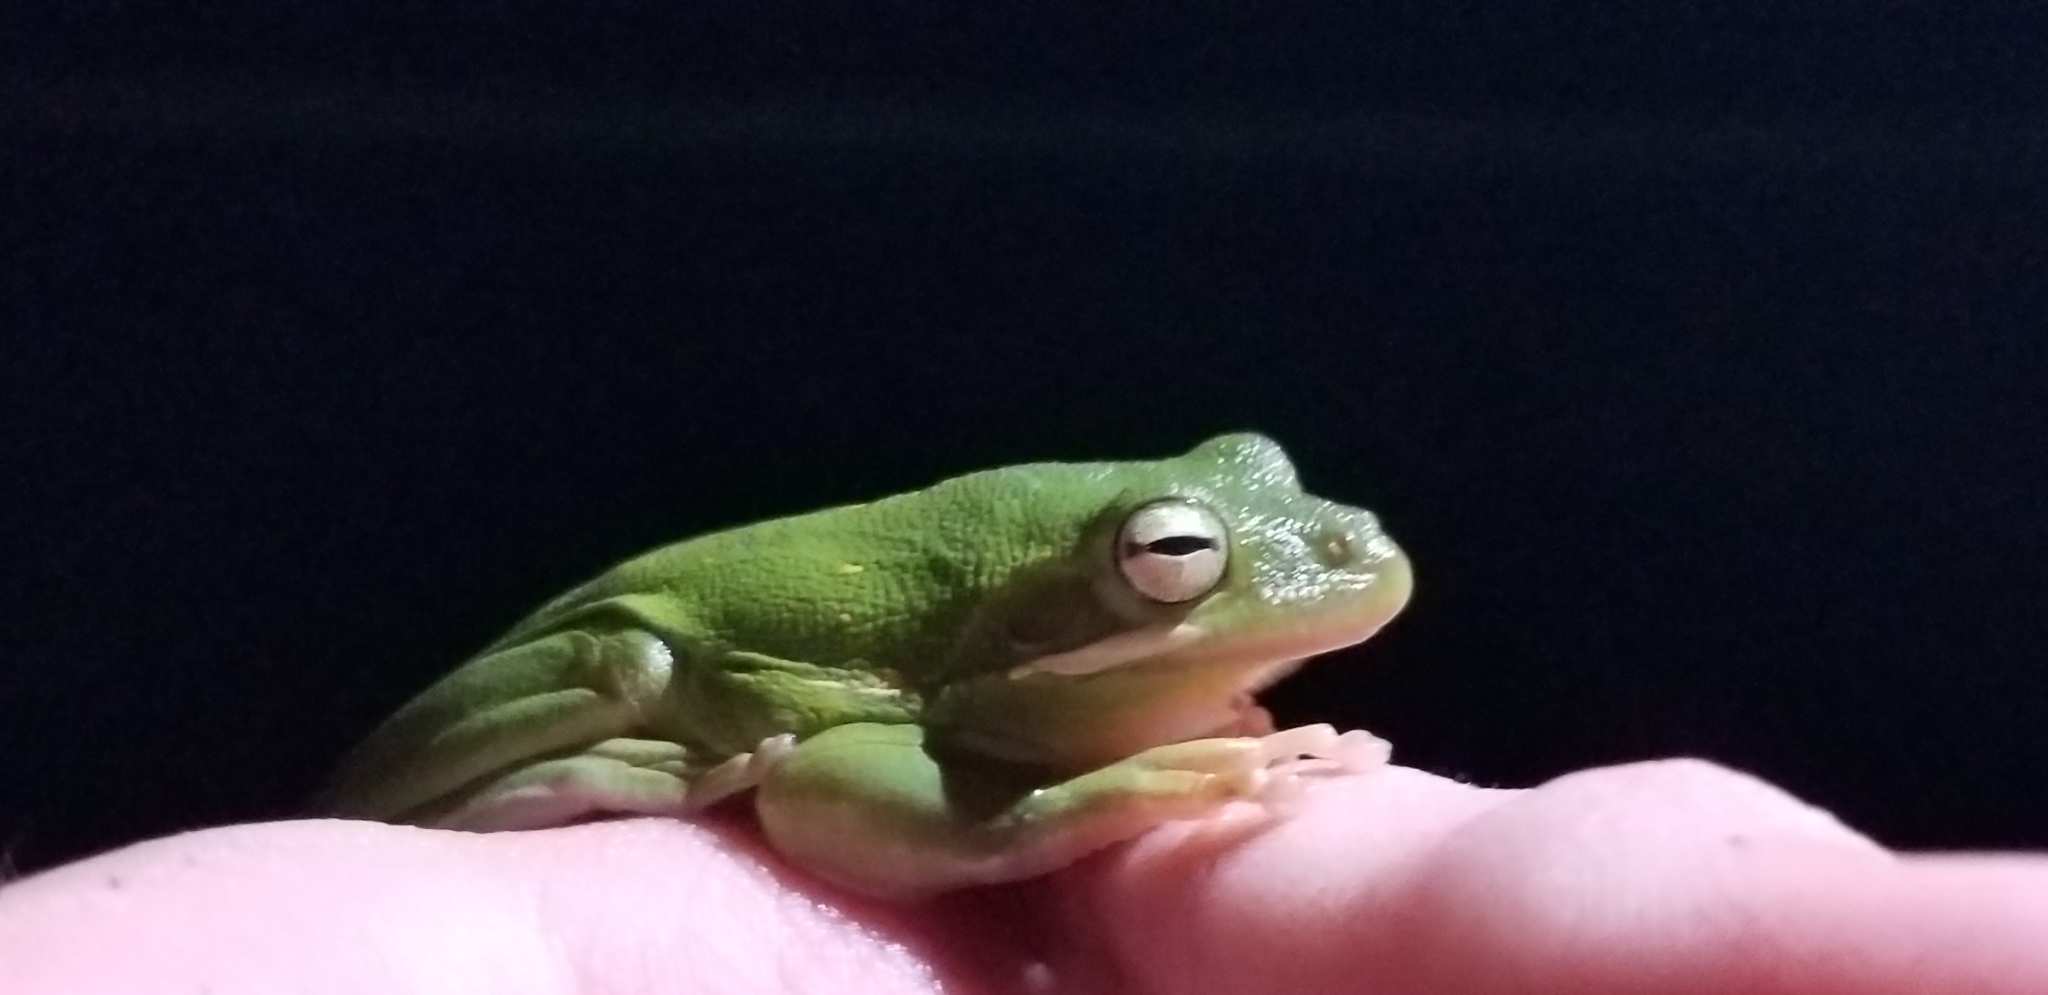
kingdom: Animalia
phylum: Chordata
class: Amphibia
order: Anura
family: Hylidae
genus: Dryophytes
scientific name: Dryophytes cinereus
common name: Green treefrog
